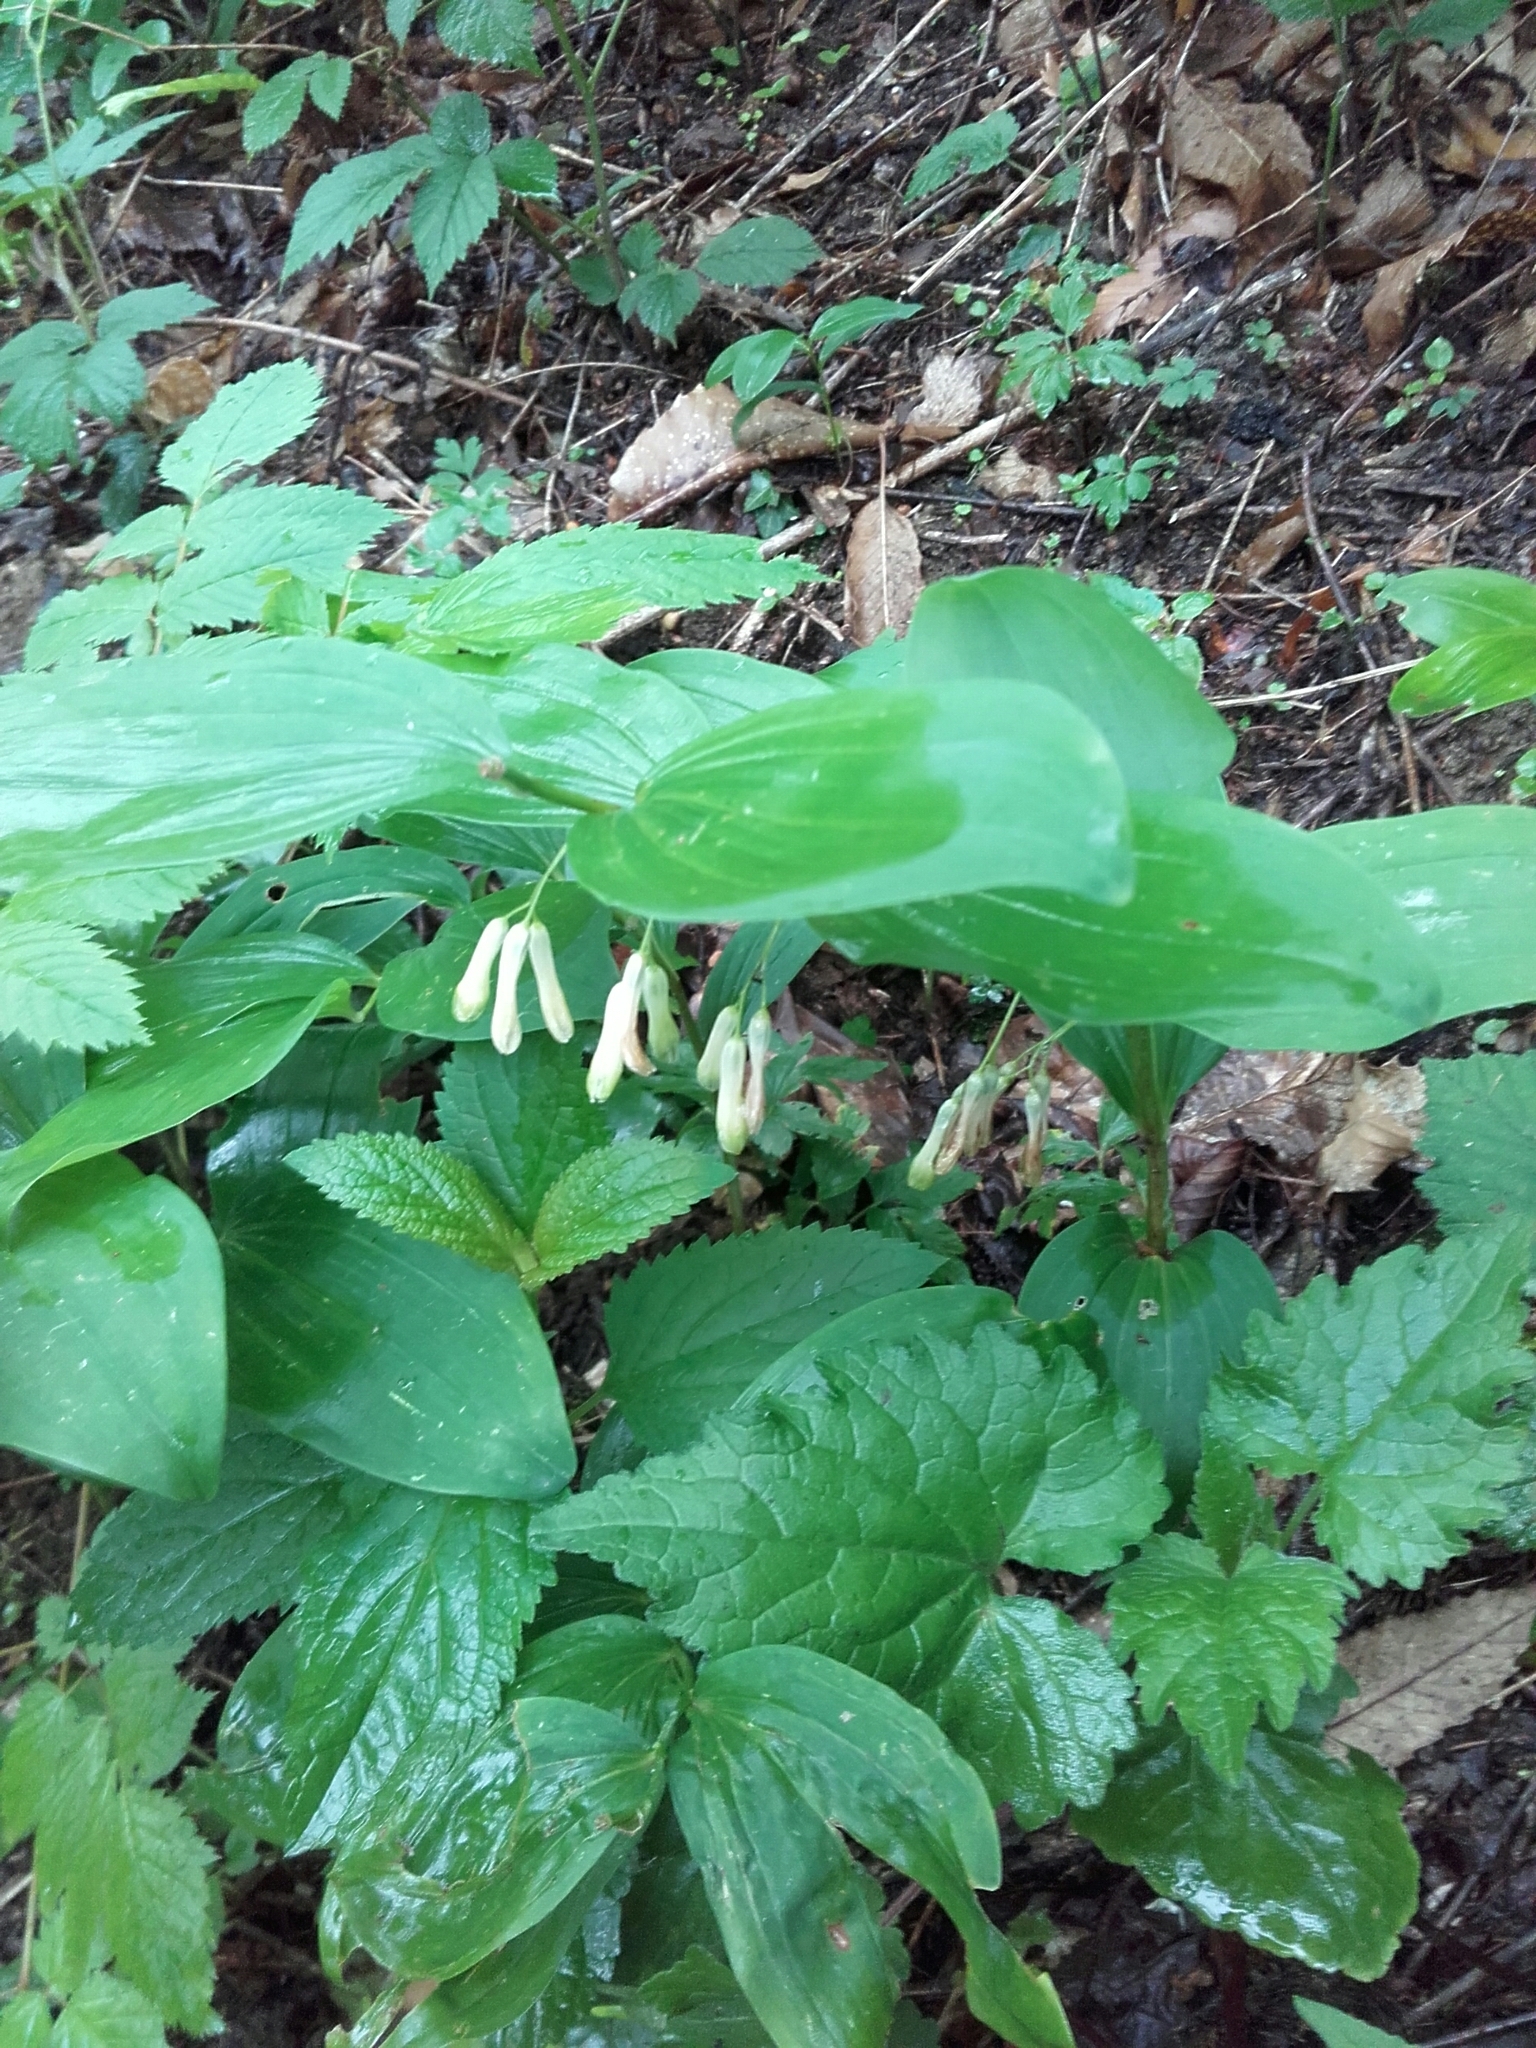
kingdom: Plantae
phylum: Tracheophyta
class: Liliopsida
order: Asparagales
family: Asparagaceae
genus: Polygonatum
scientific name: Polygonatum multiflorum
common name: Solomon's-seal
